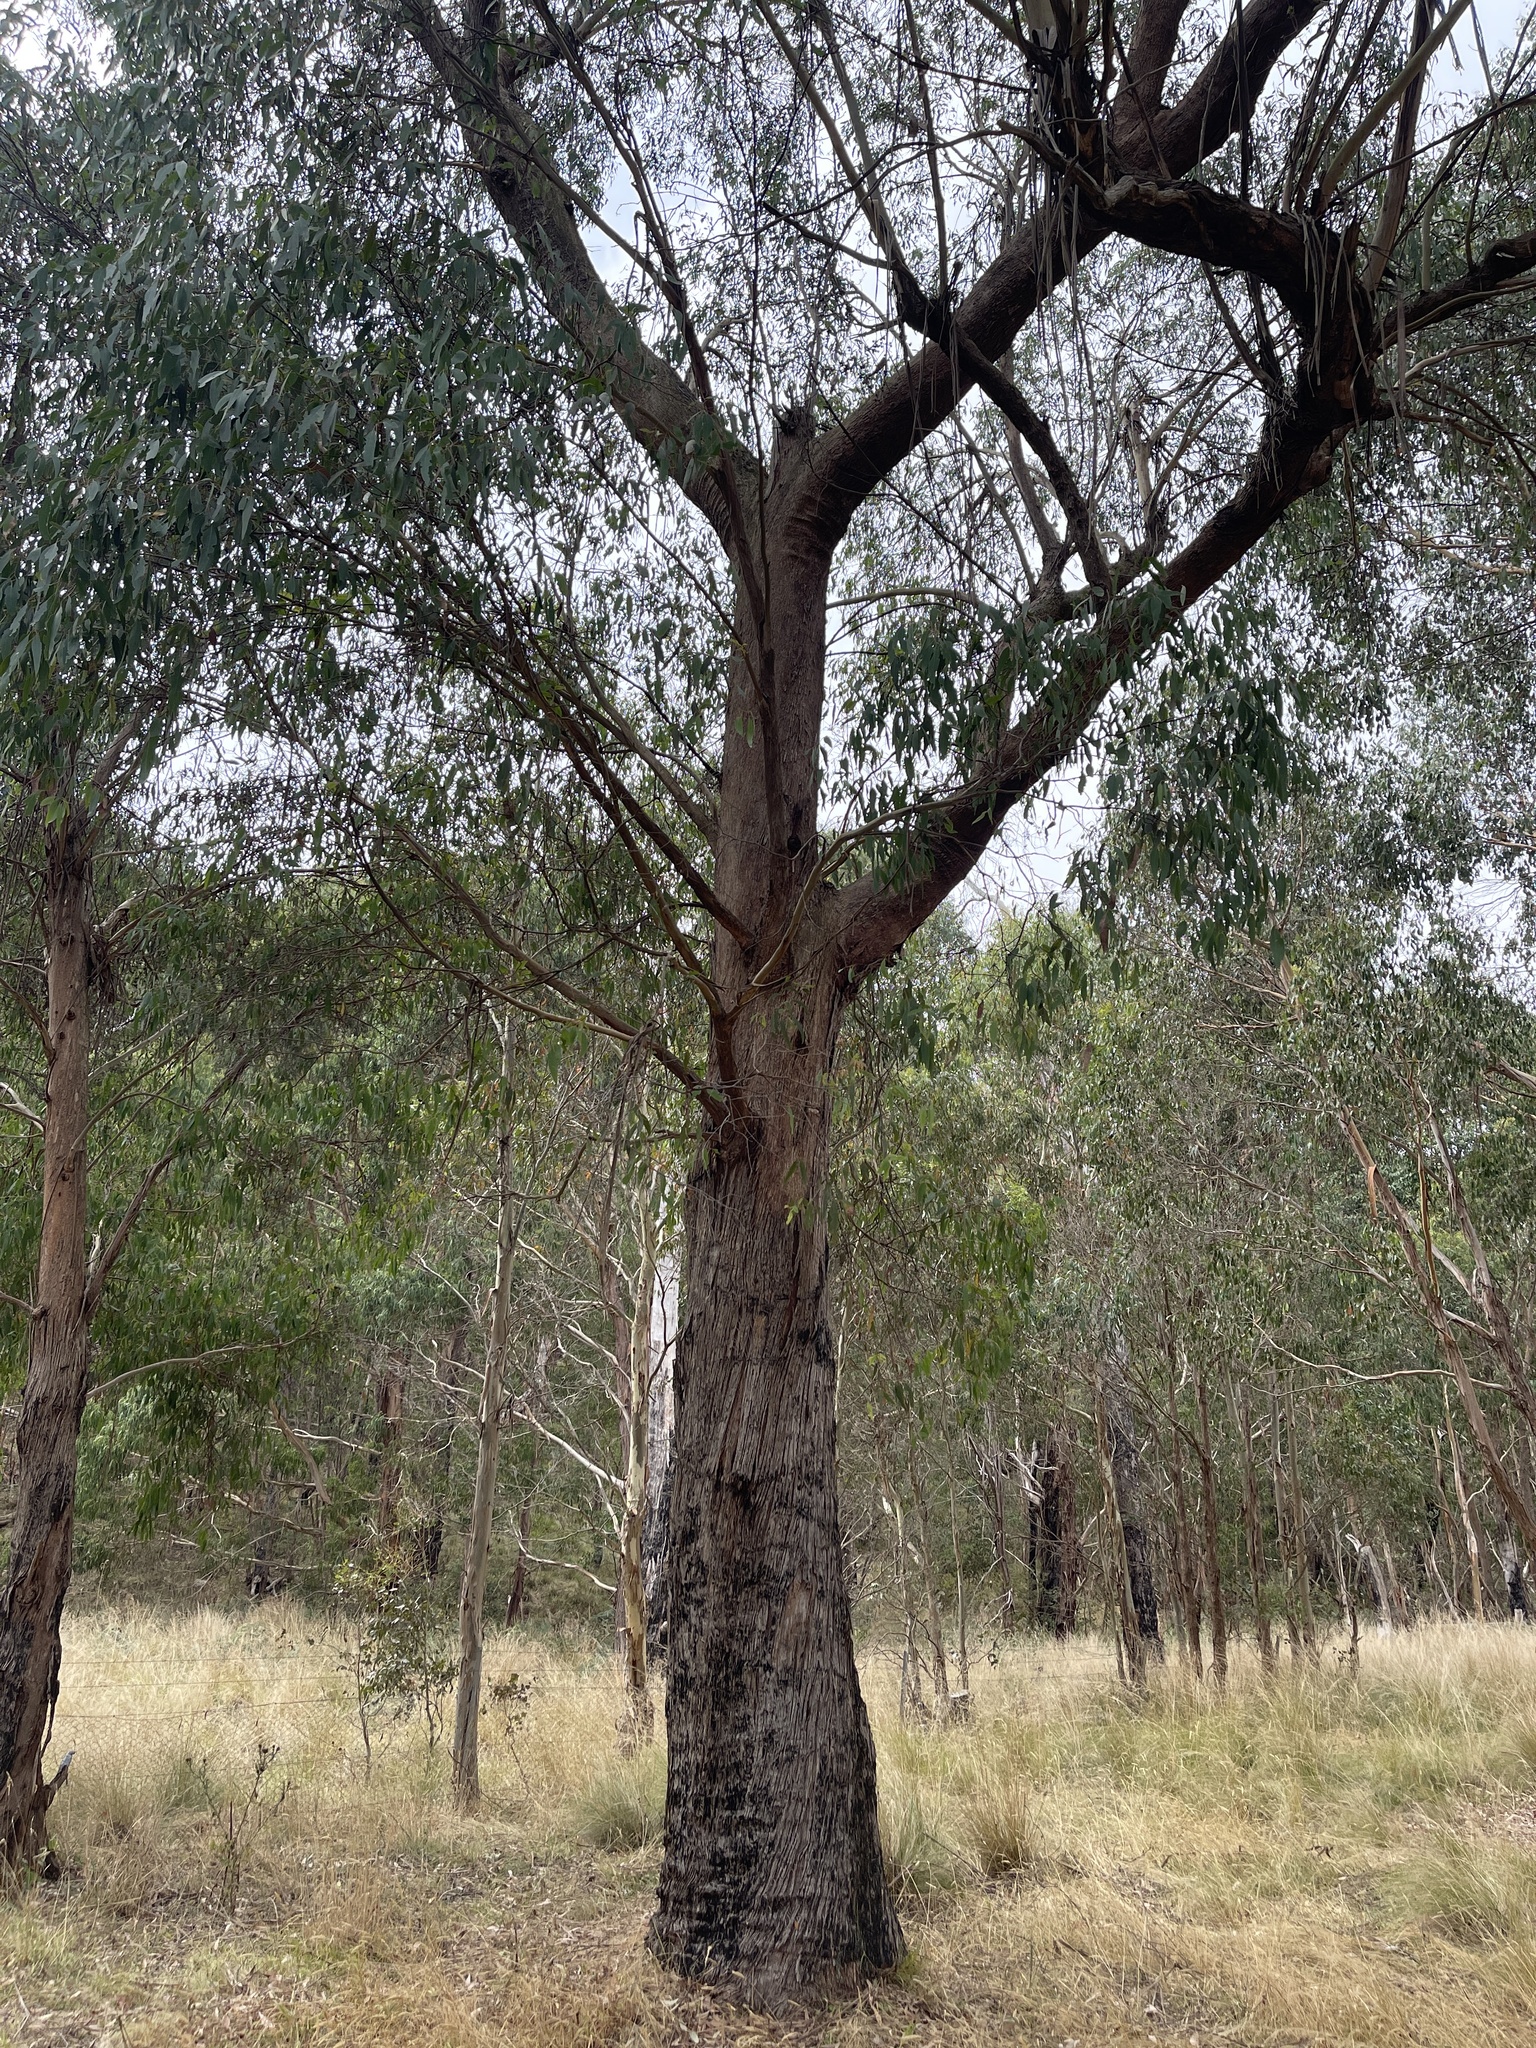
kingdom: Plantae
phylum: Tracheophyta
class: Magnoliopsida
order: Myrtales
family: Myrtaceae
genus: Eucalyptus
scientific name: Eucalyptus radiata
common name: Narrow-leaved-peppermint
